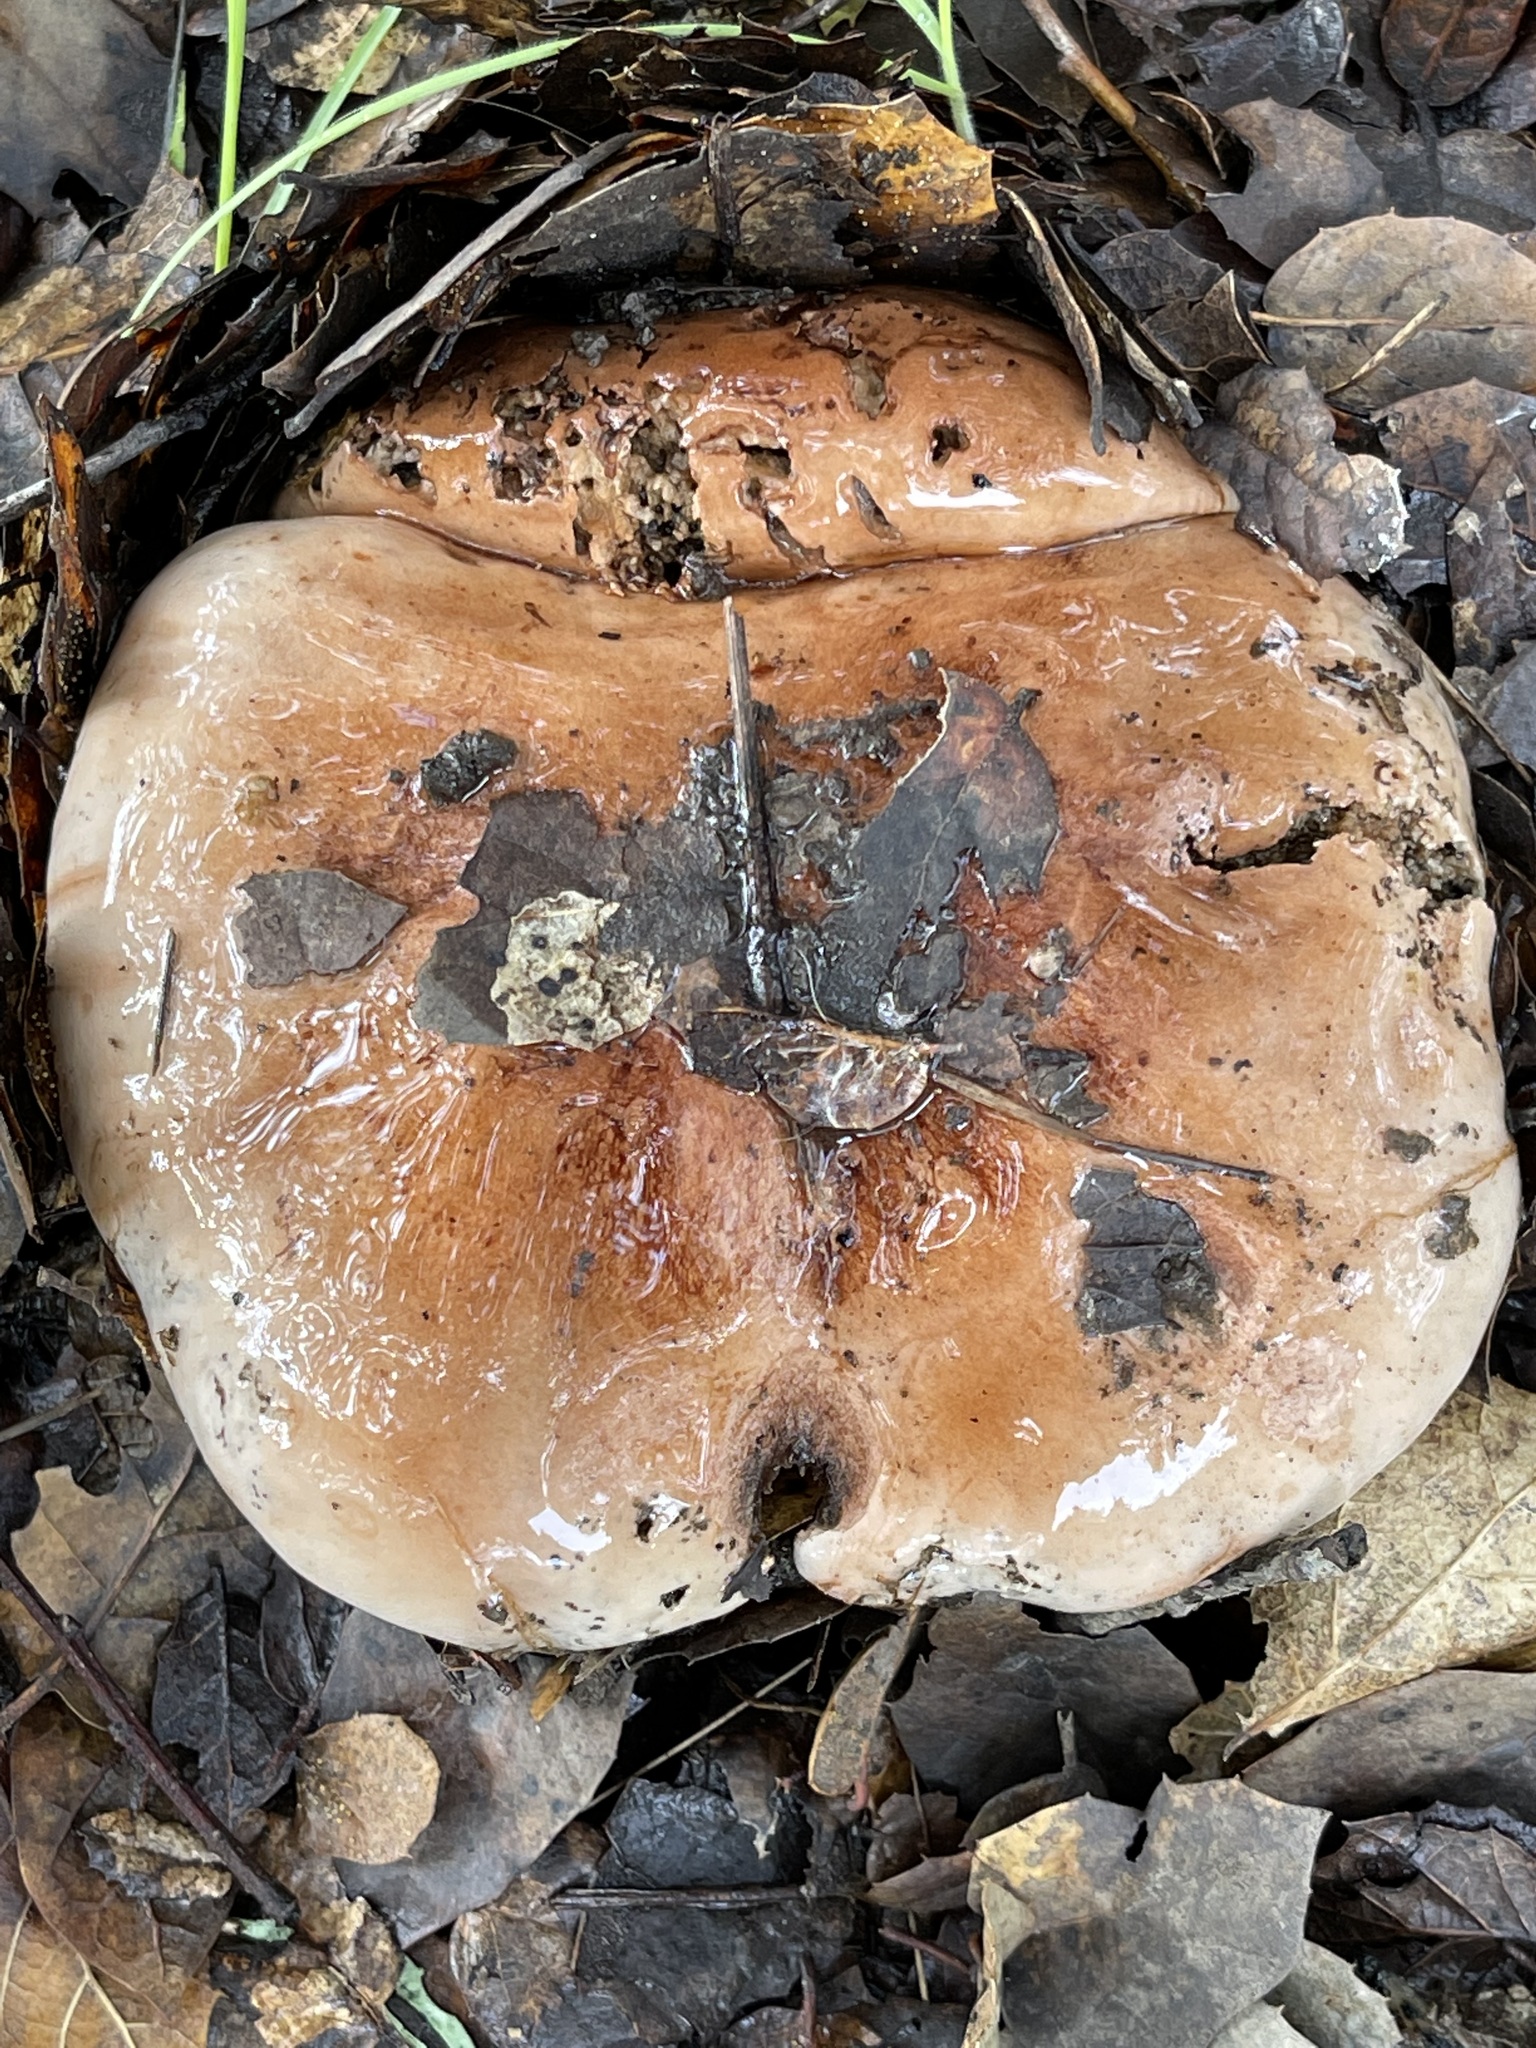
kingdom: Fungi
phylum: Basidiomycota
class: Agaricomycetes
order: Agaricales
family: Tricholomataceae
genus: Melanoleuca
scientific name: Melanoleuca dryophila
